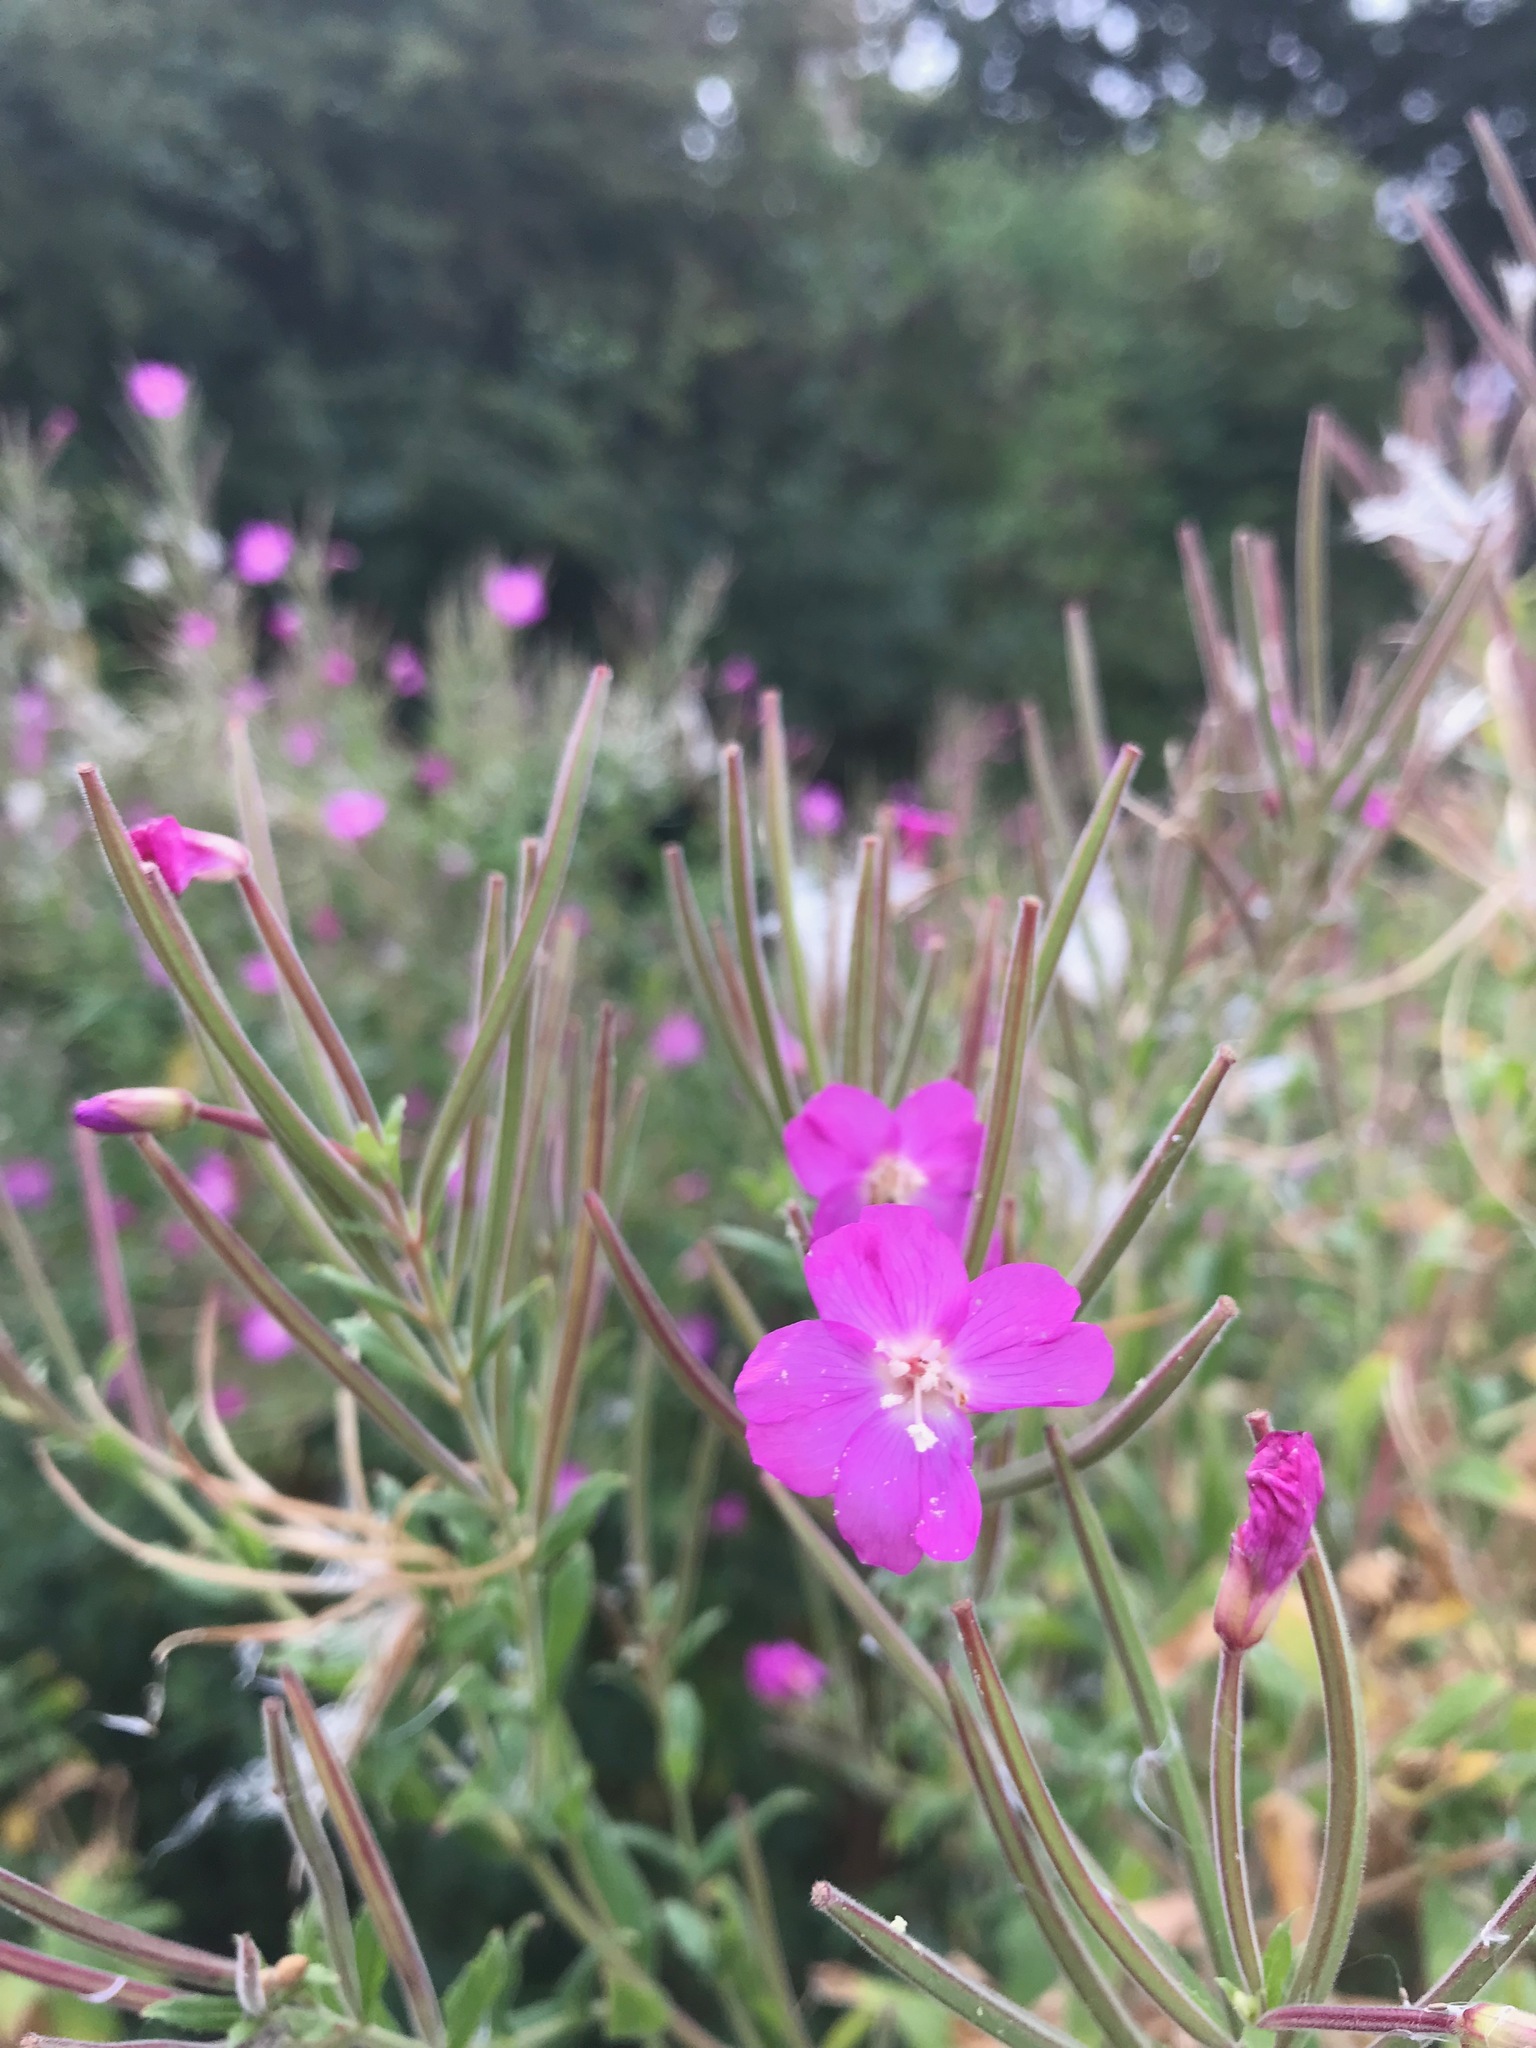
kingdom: Plantae
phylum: Tracheophyta
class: Magnoliopsida
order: Myrtales
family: Onagraceae
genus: Epilobium
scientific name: Epilobium hirsutum
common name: Great willowherb
